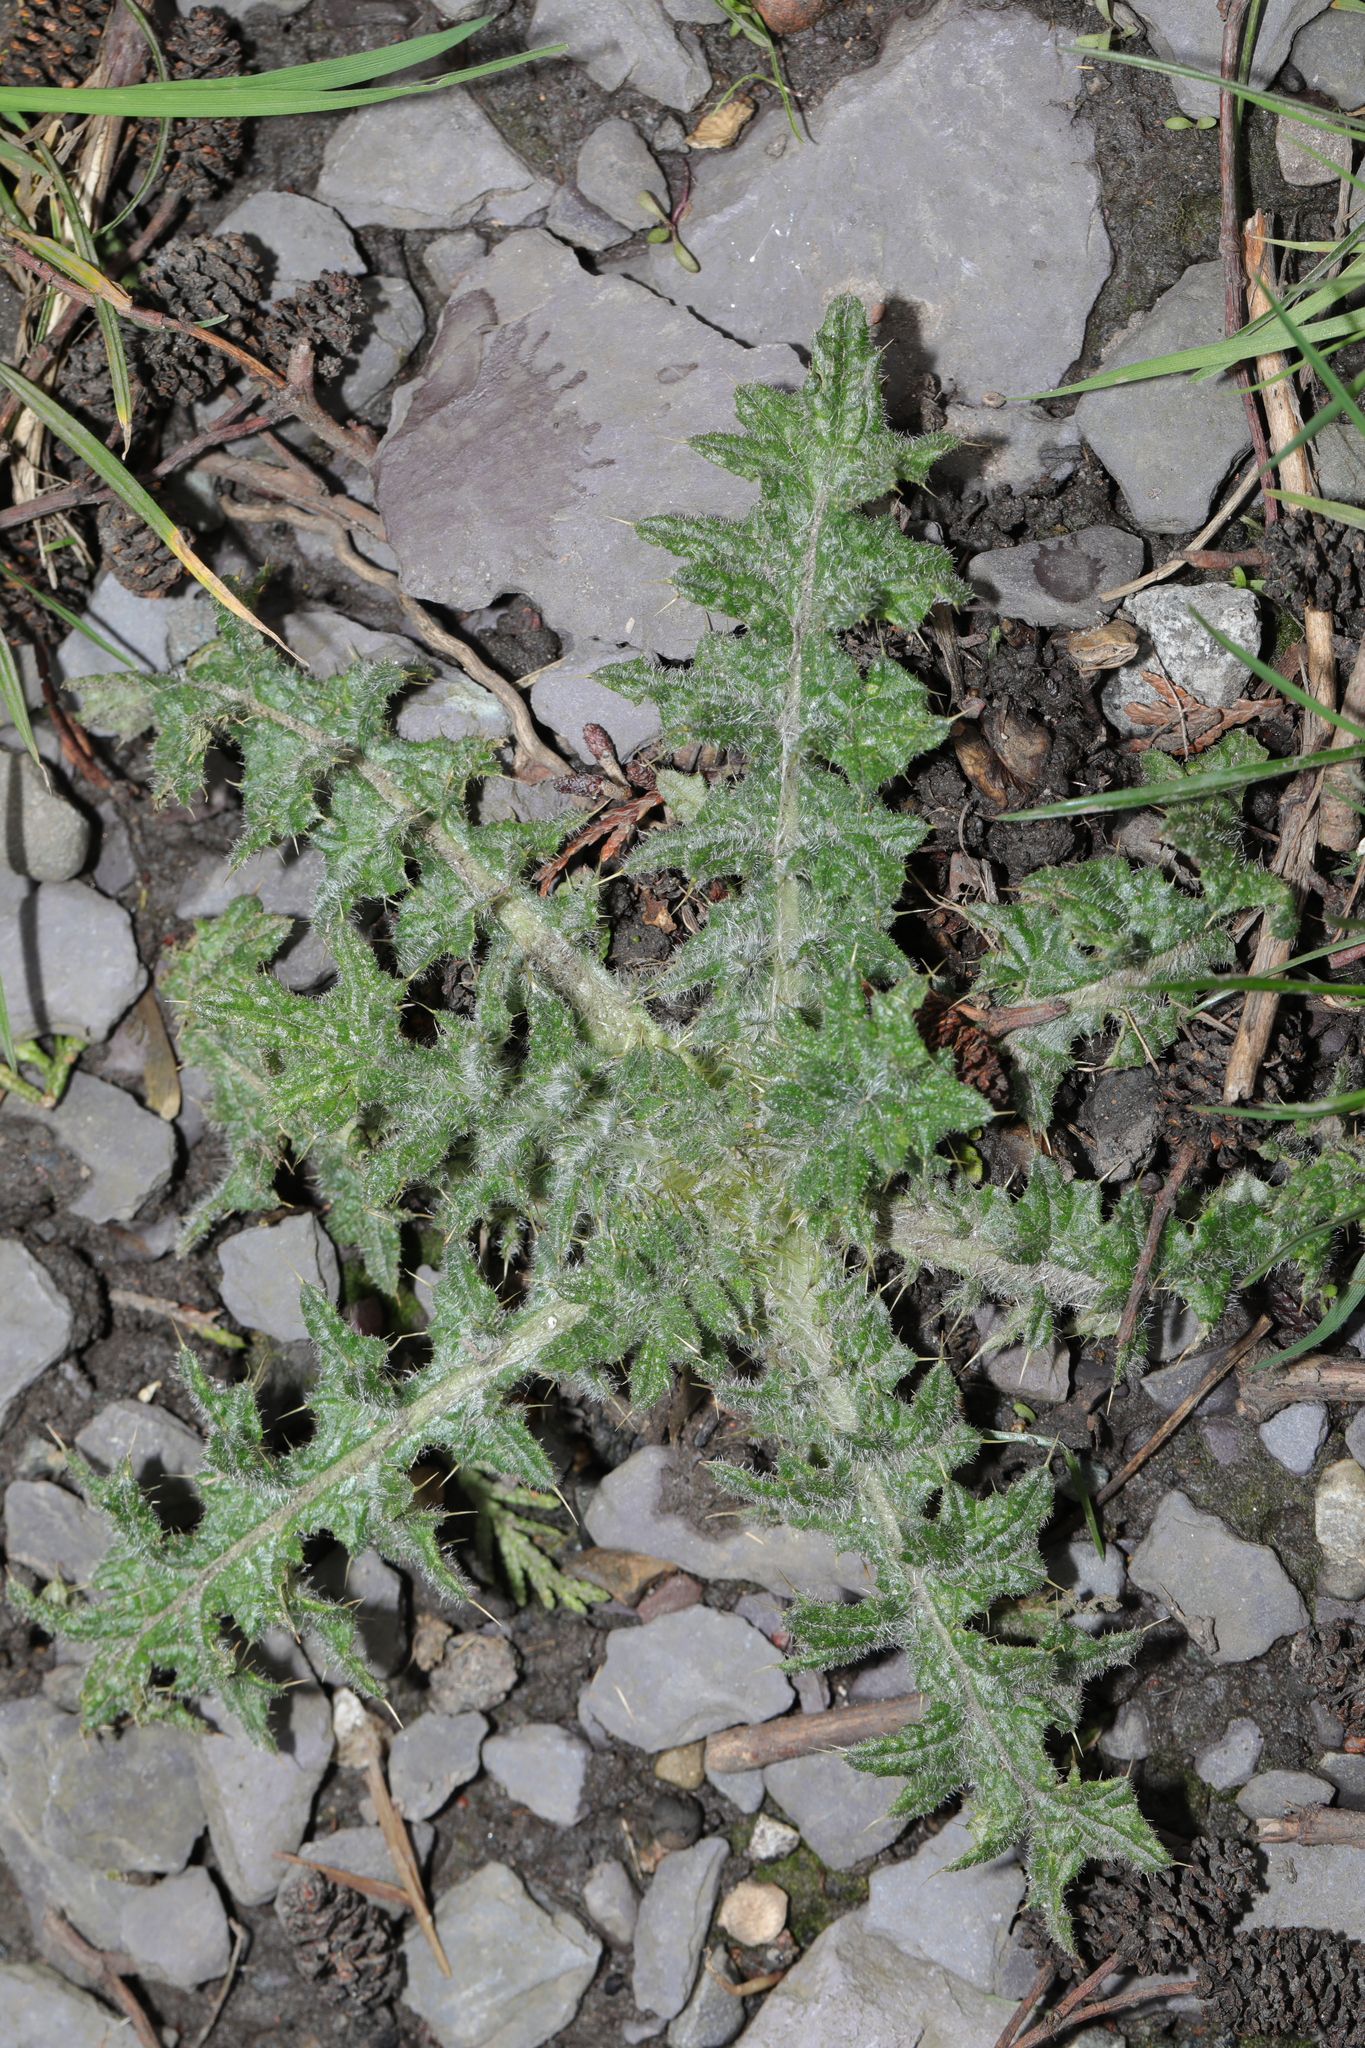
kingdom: Plantae
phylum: Tracheophyta
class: Magnoliopsida
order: Asterales
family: Asteraceae
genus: Cirsium
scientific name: Cirsium vulgare
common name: Bull thistle
